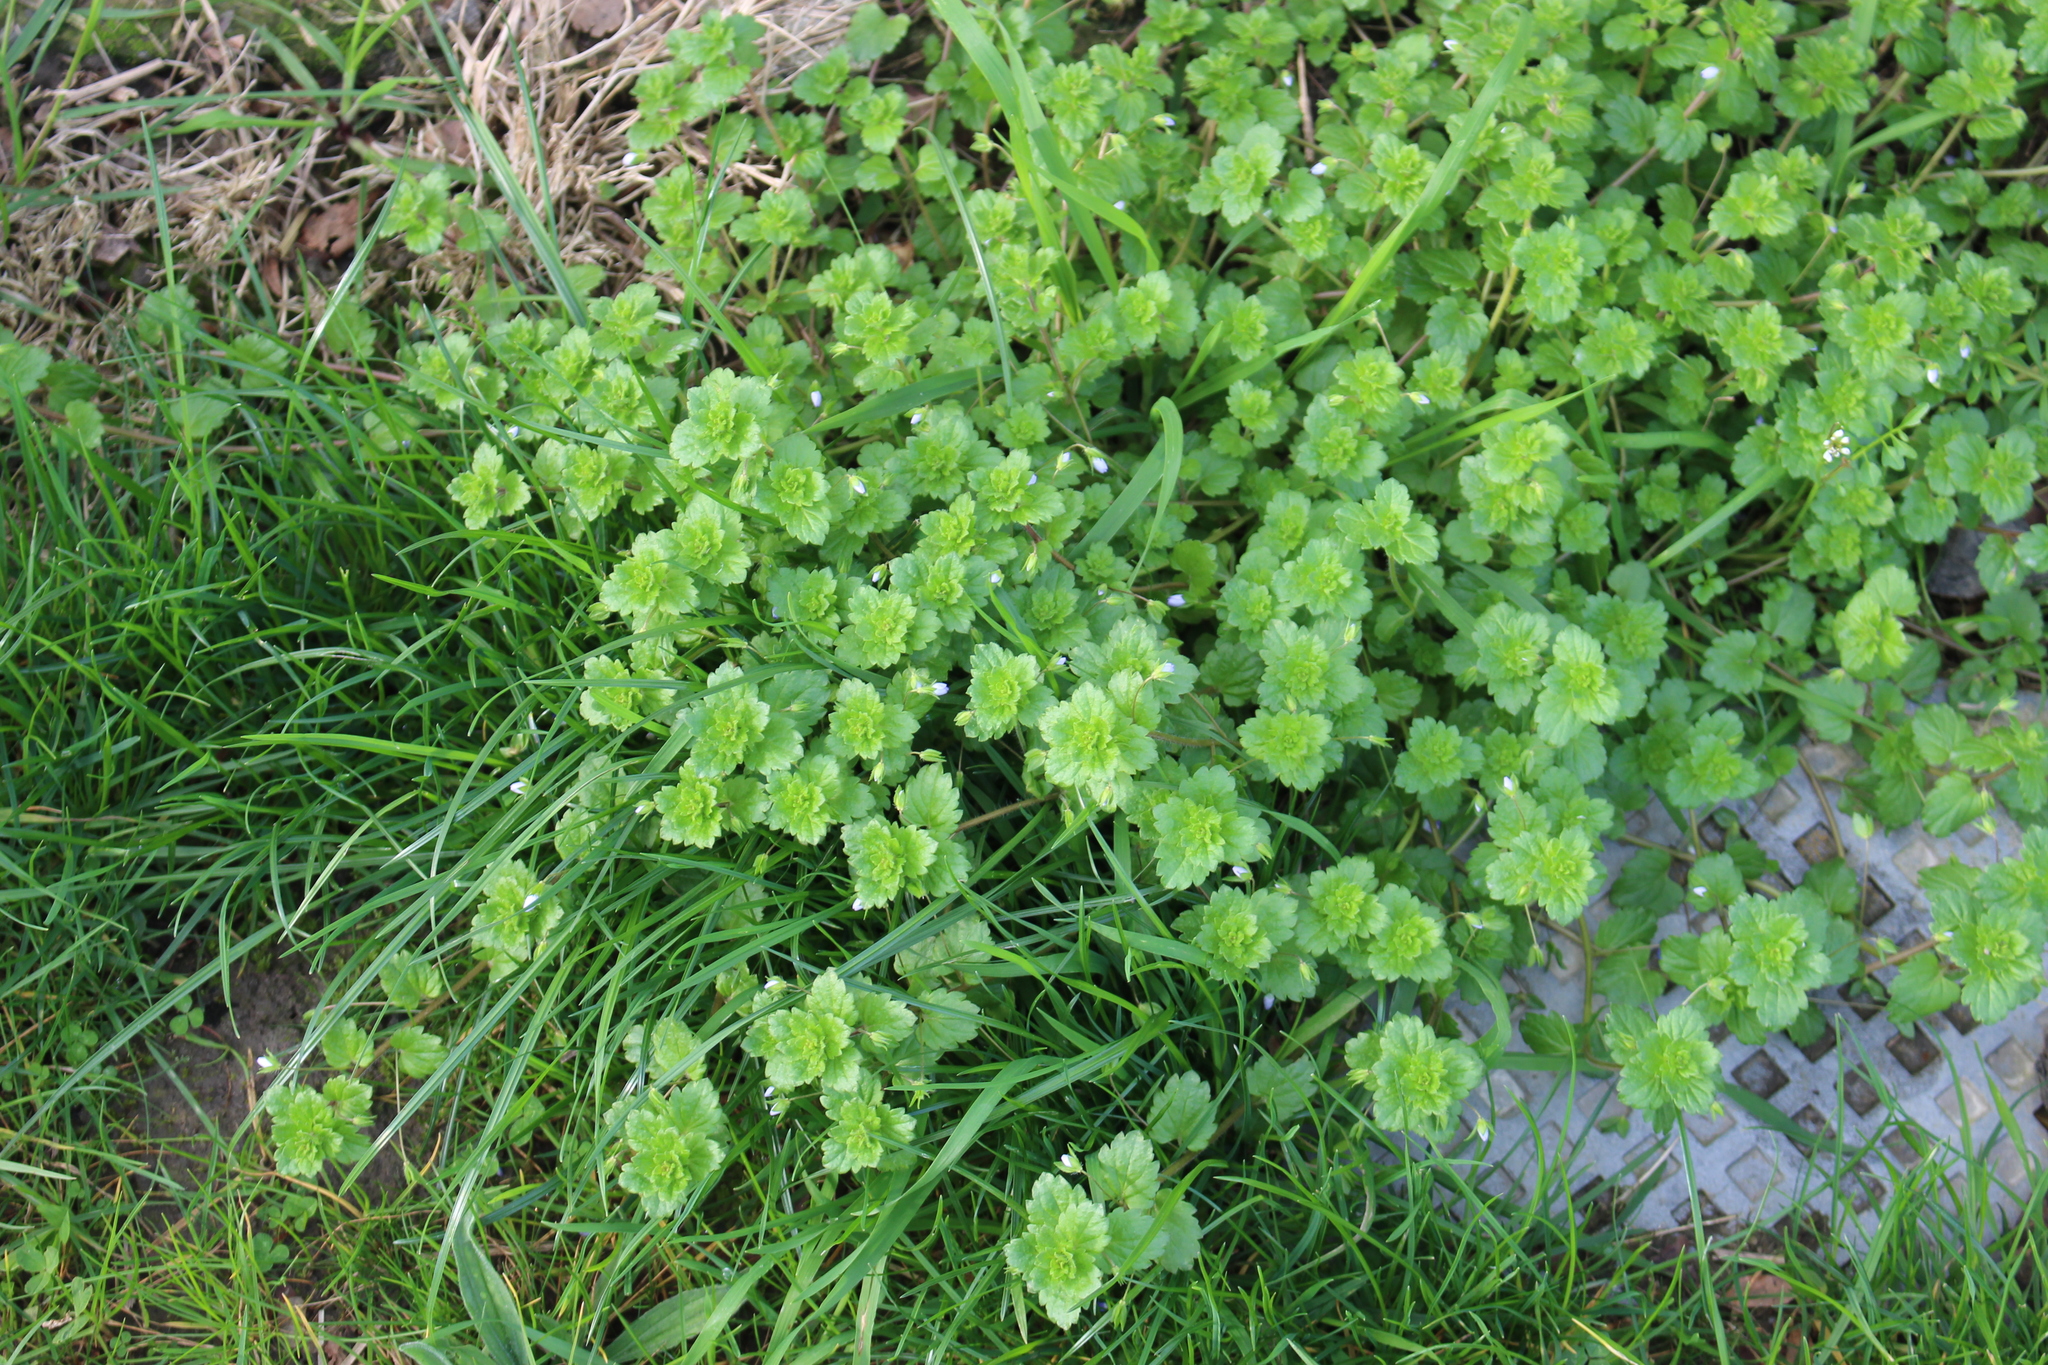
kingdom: Plantae
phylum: Tracheophyta
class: Magnoliopsida
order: Lamiales
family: Plantaginaceae
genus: Veronica
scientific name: Veronica persica
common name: Common field-speedwell
